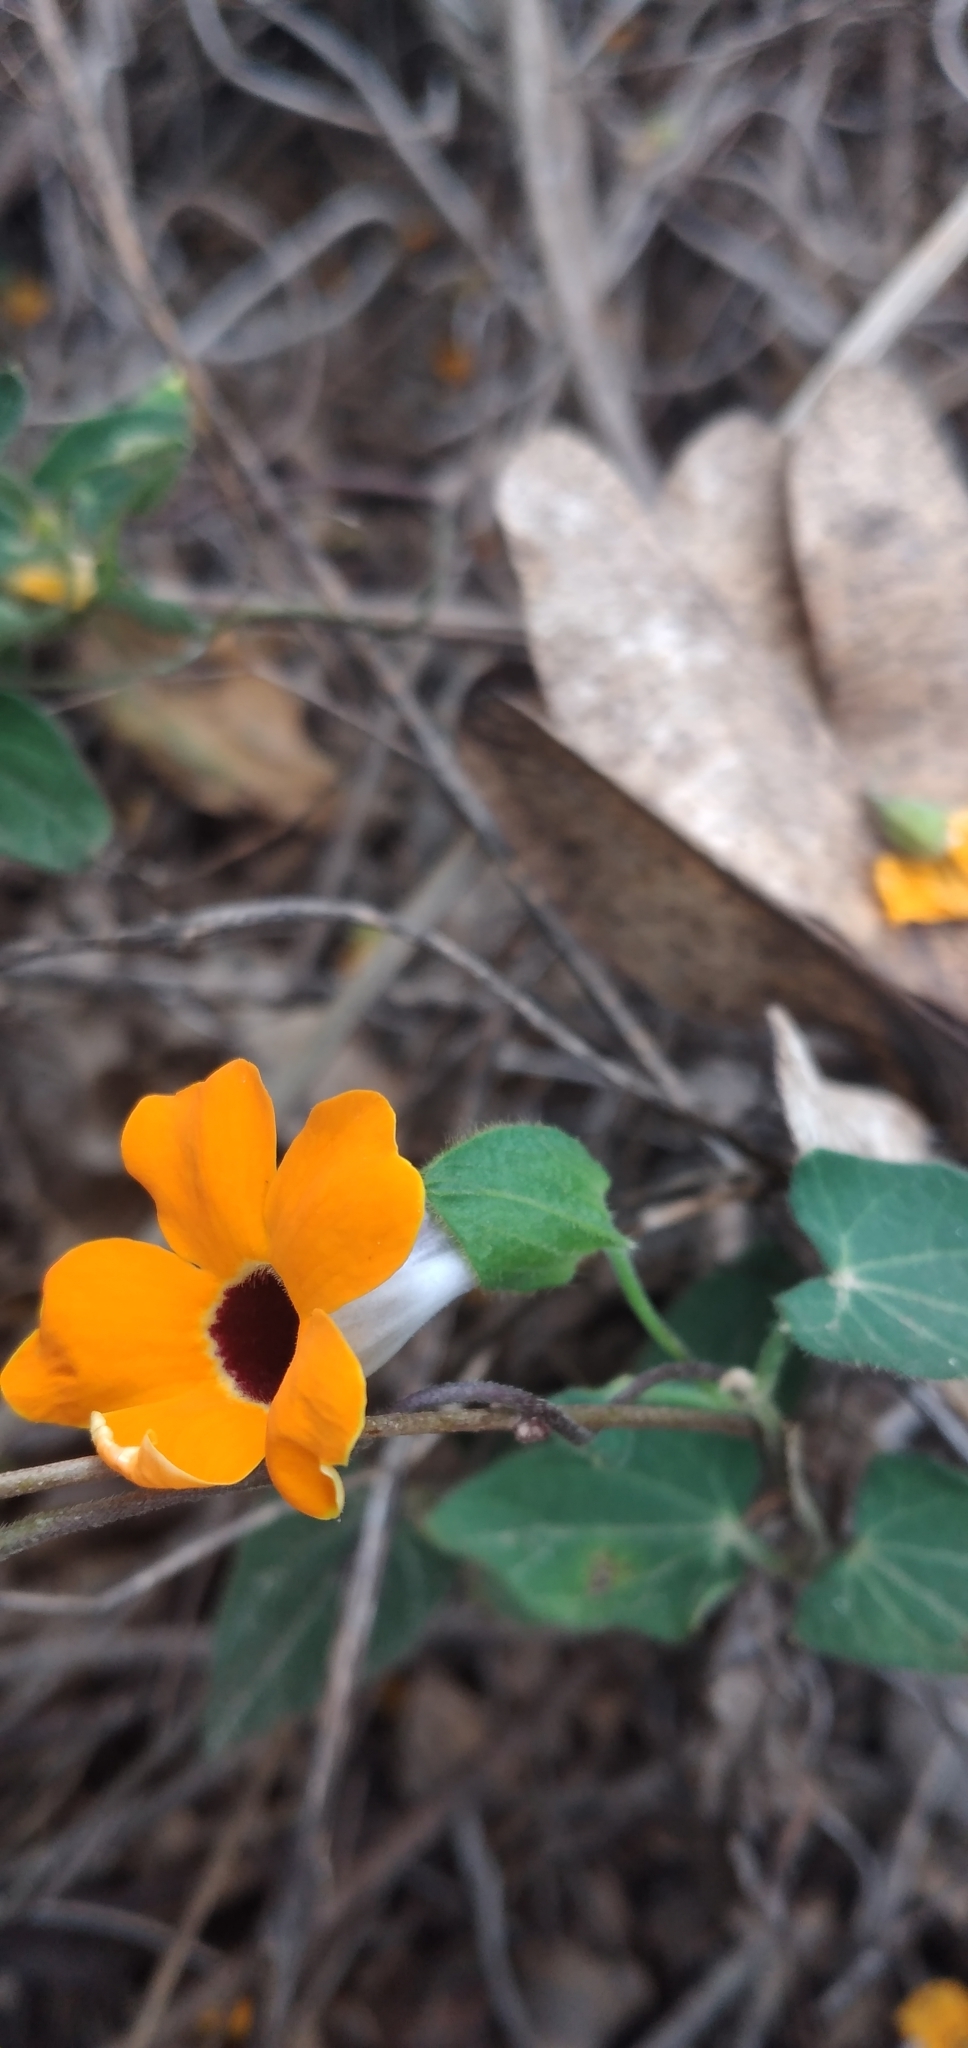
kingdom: Plantae
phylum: Tracheophyta
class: Magnoliopsida
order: Lamiales
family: Acanthaceae
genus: Thunbergia
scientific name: Thunbergia alata
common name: Blackeyed susan vine
